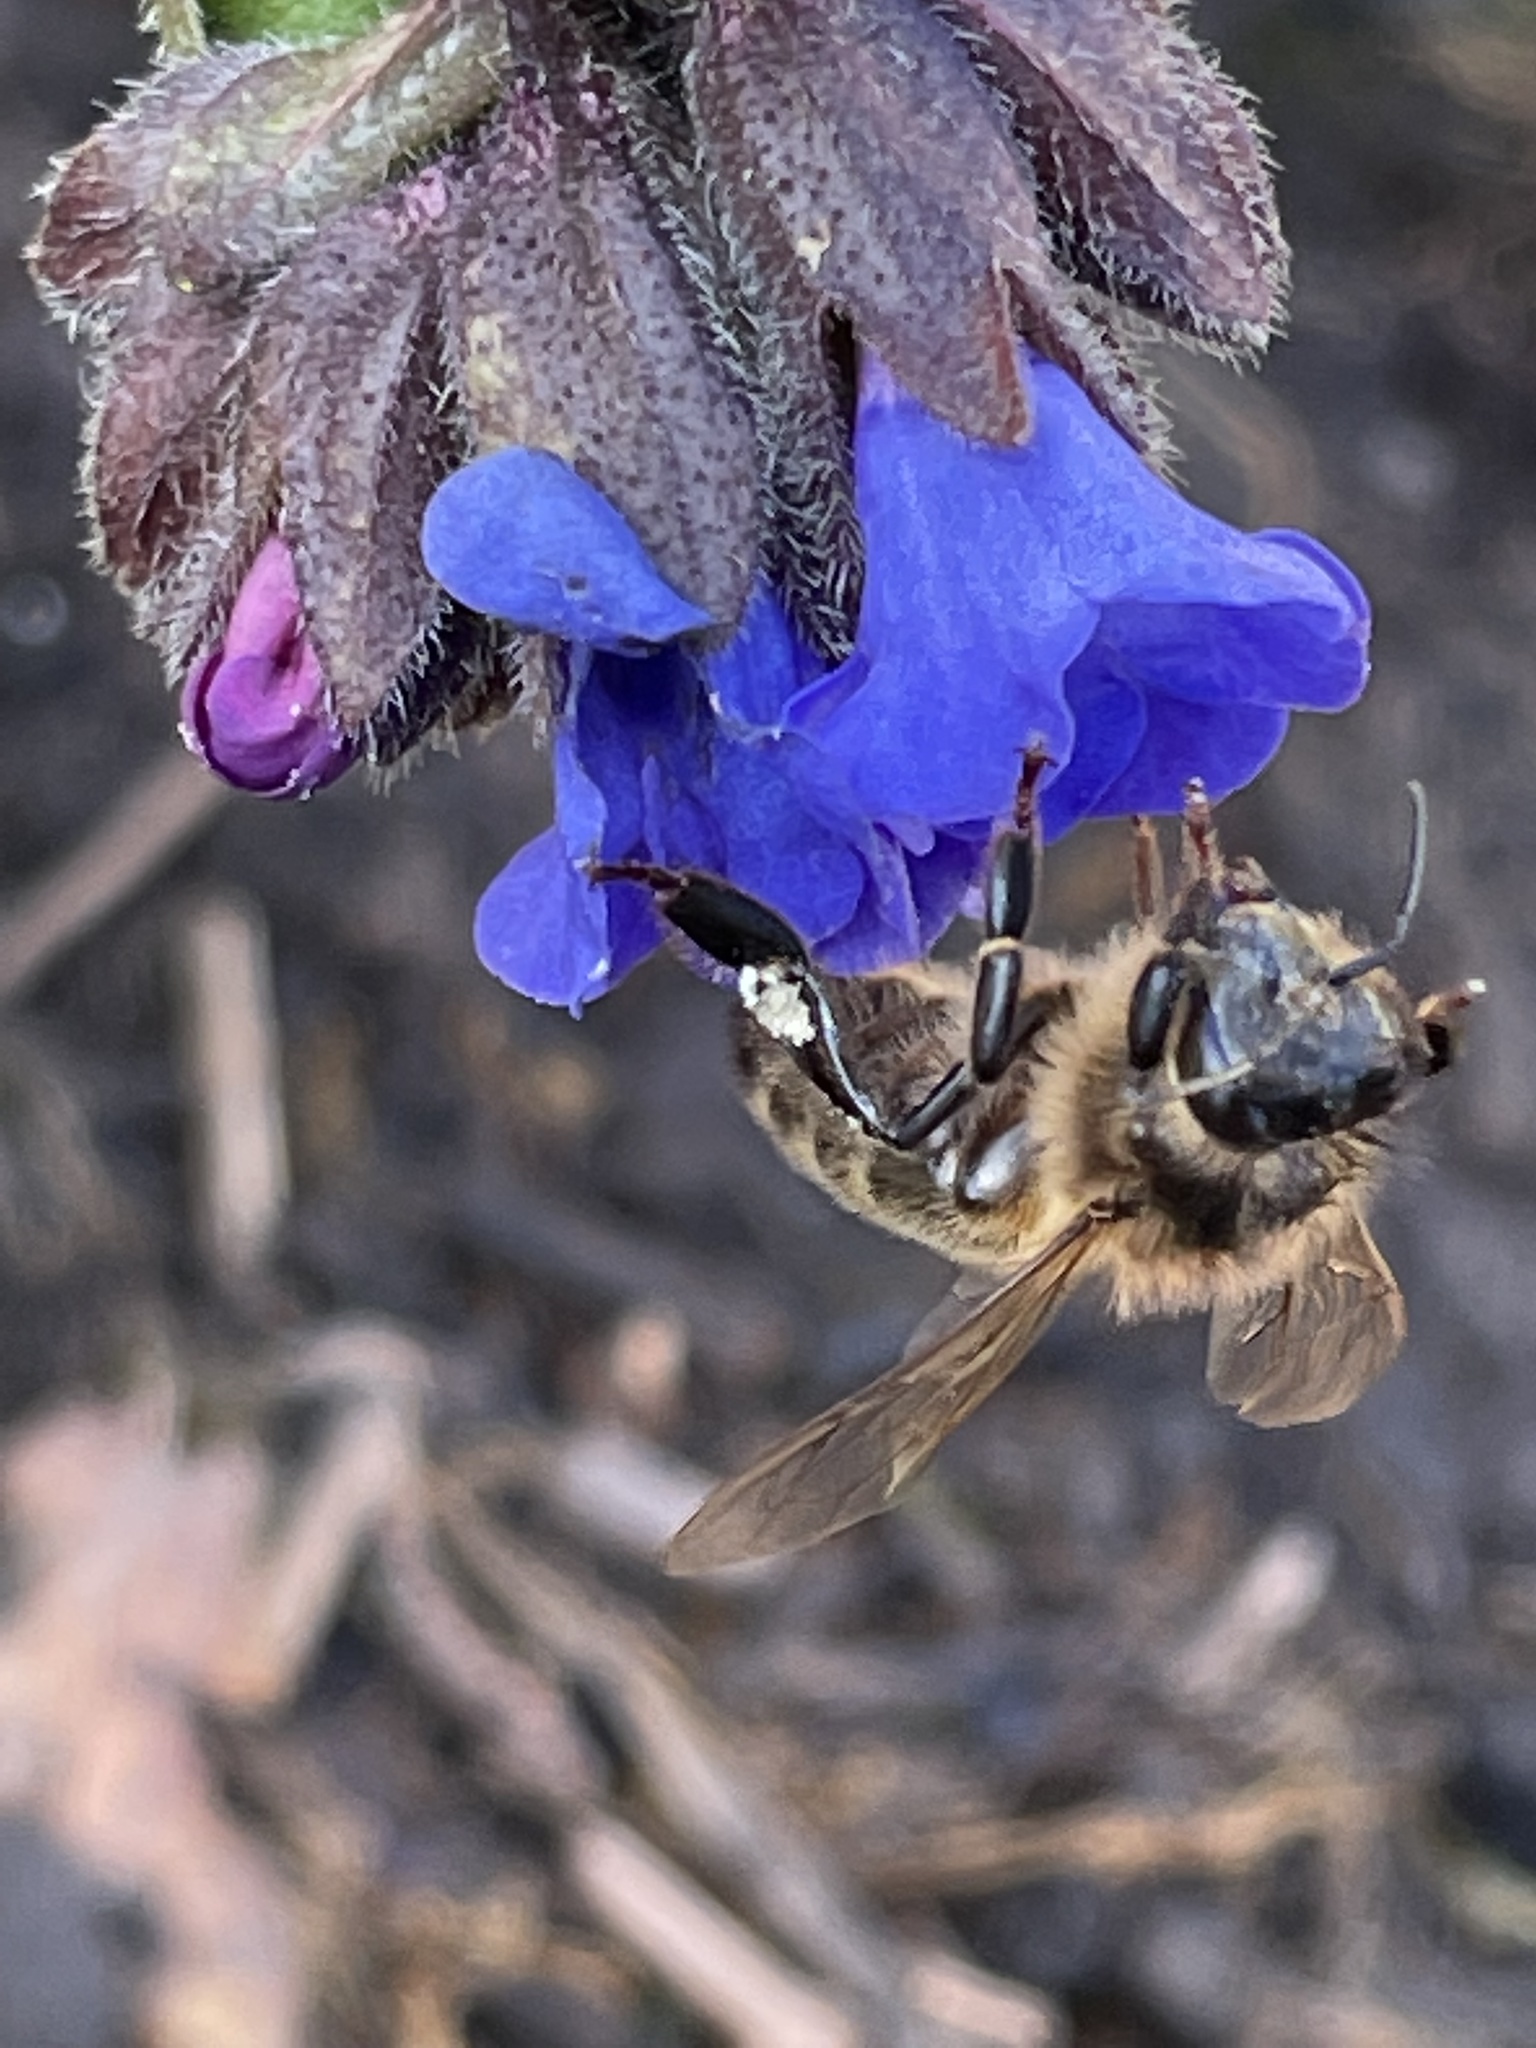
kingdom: Animalia
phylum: Arthropoda
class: Insecta
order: Hymenoptera
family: Apidae
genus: Apis
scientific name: Apis mellifera
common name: Honey bee
